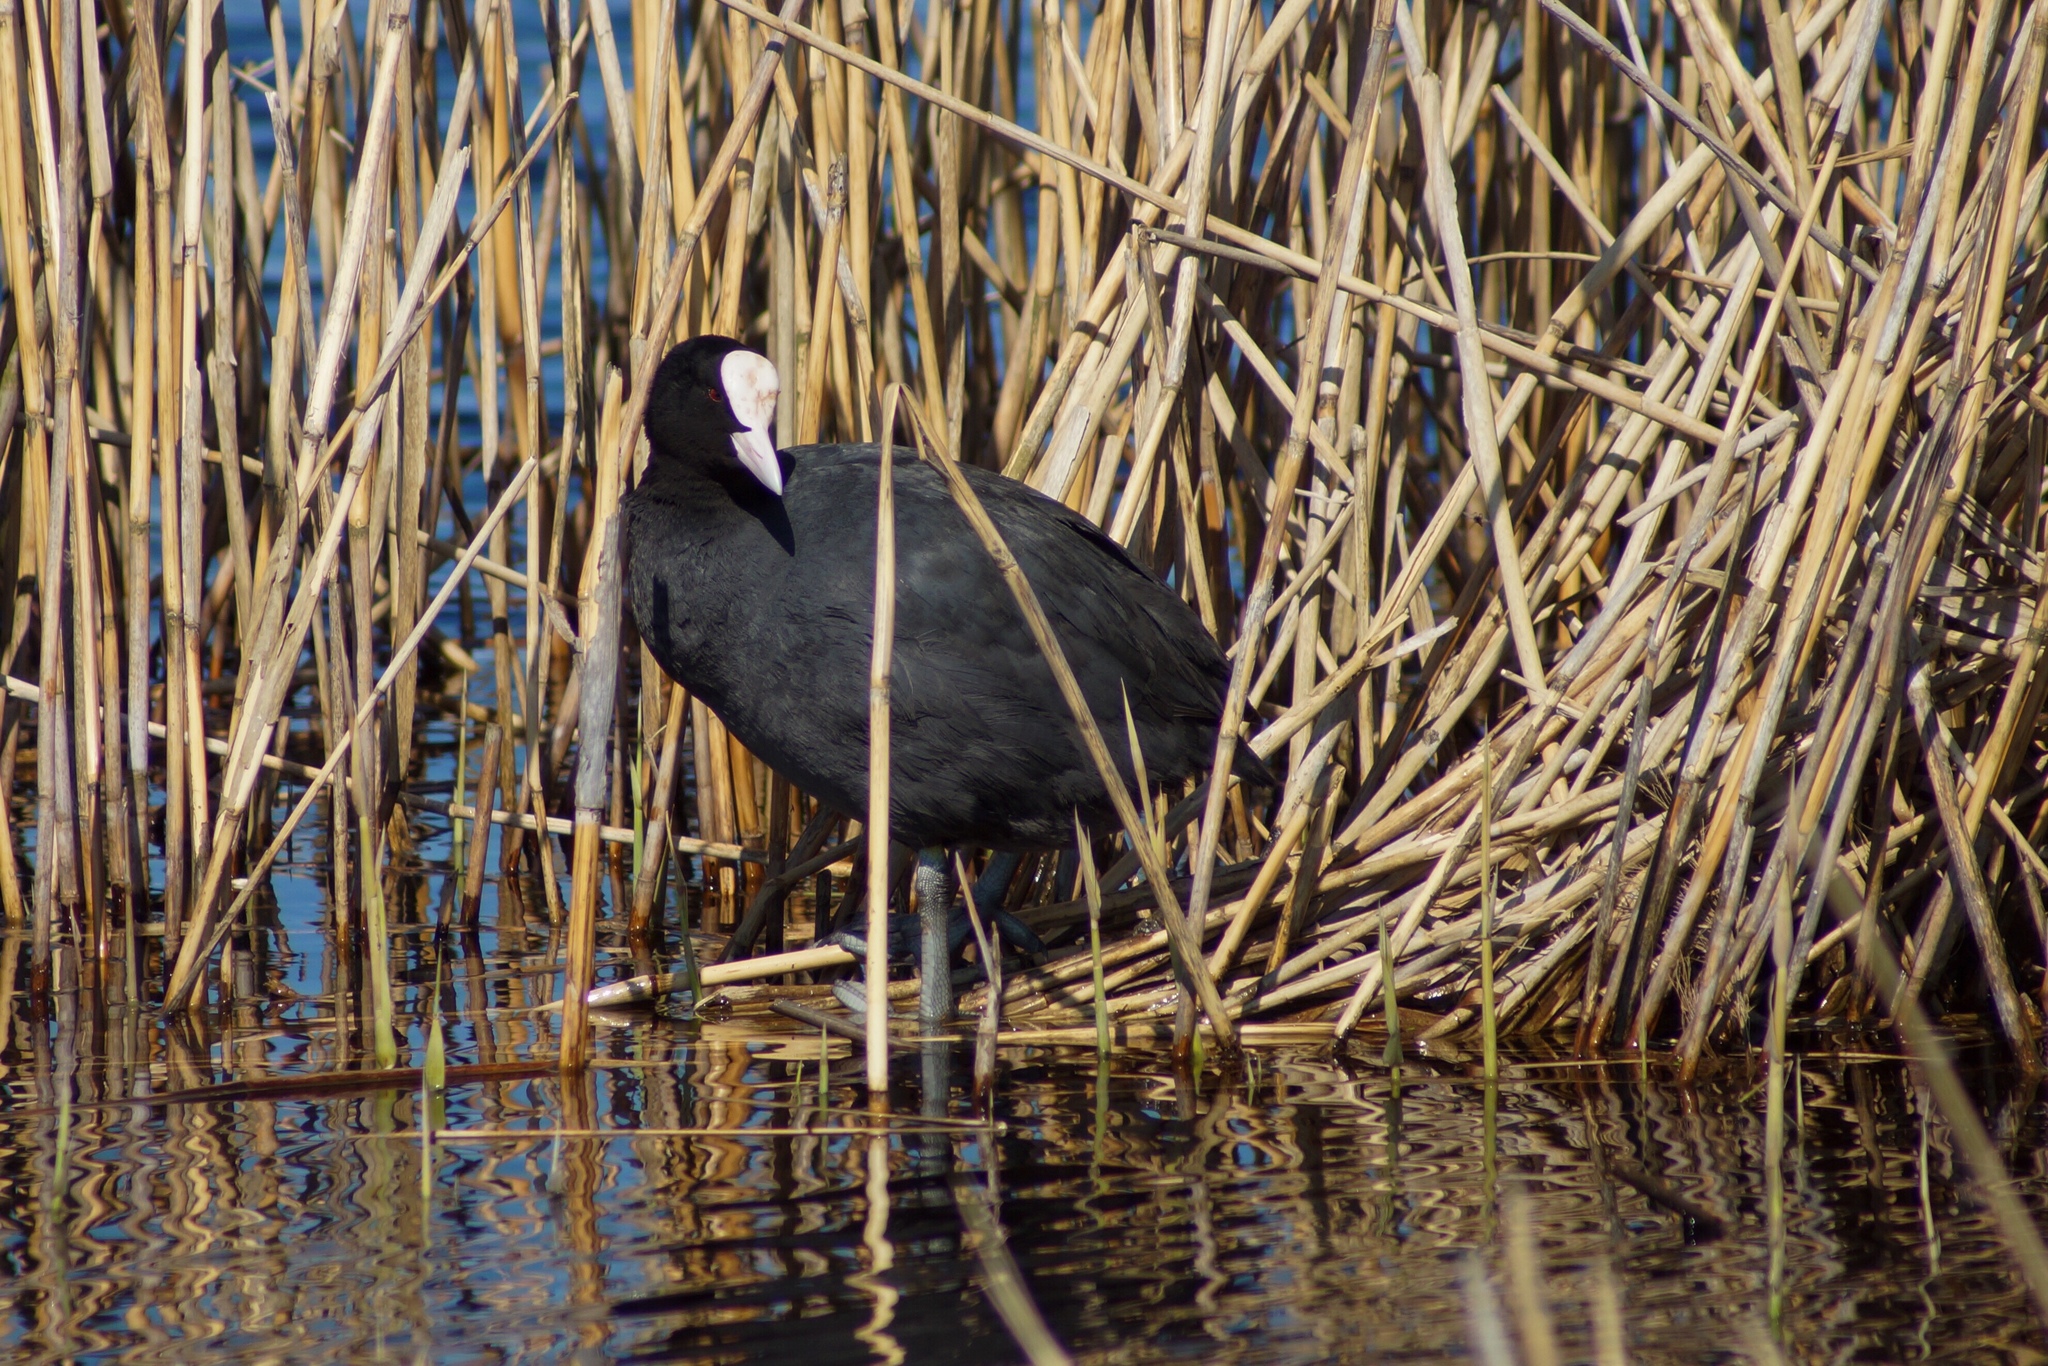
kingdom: Animalia
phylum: Chordata
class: Aves
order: Gruiformes
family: Rallidae
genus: Fulica
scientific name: Fulica atra
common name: Eurasian coot
